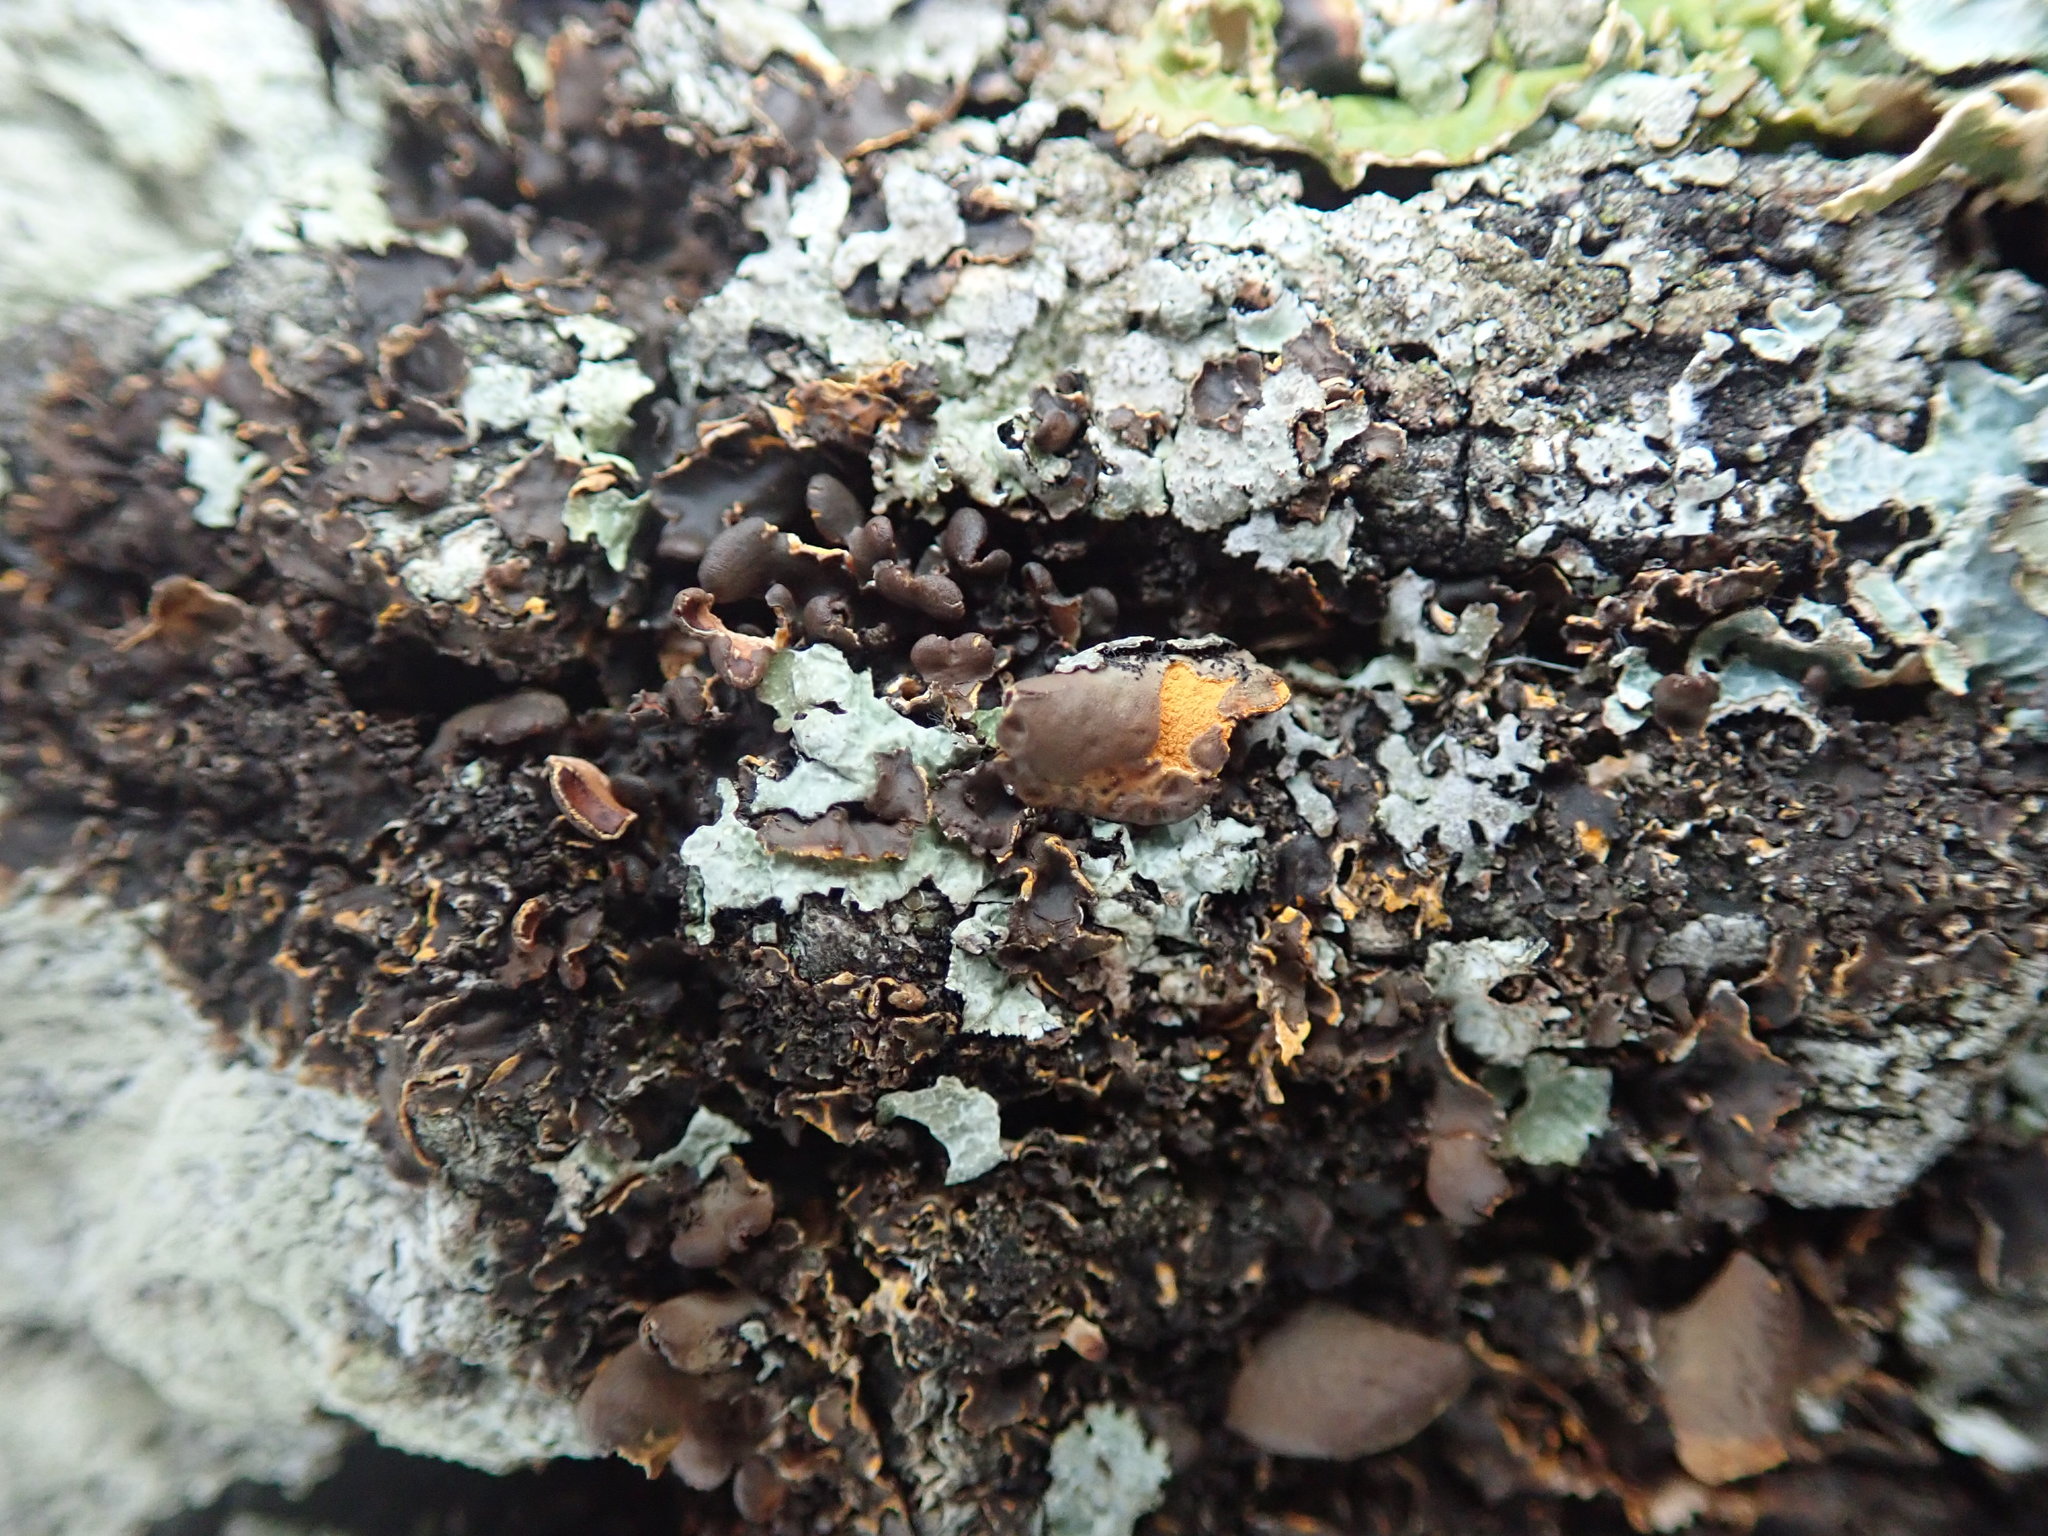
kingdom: Fungi
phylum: Ascomycota
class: Lecanoromycetes
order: Peltigerales
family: Nephromataceae
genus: Nephroma
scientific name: Nephroma laevigatum
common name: Mustard kidney lichen
